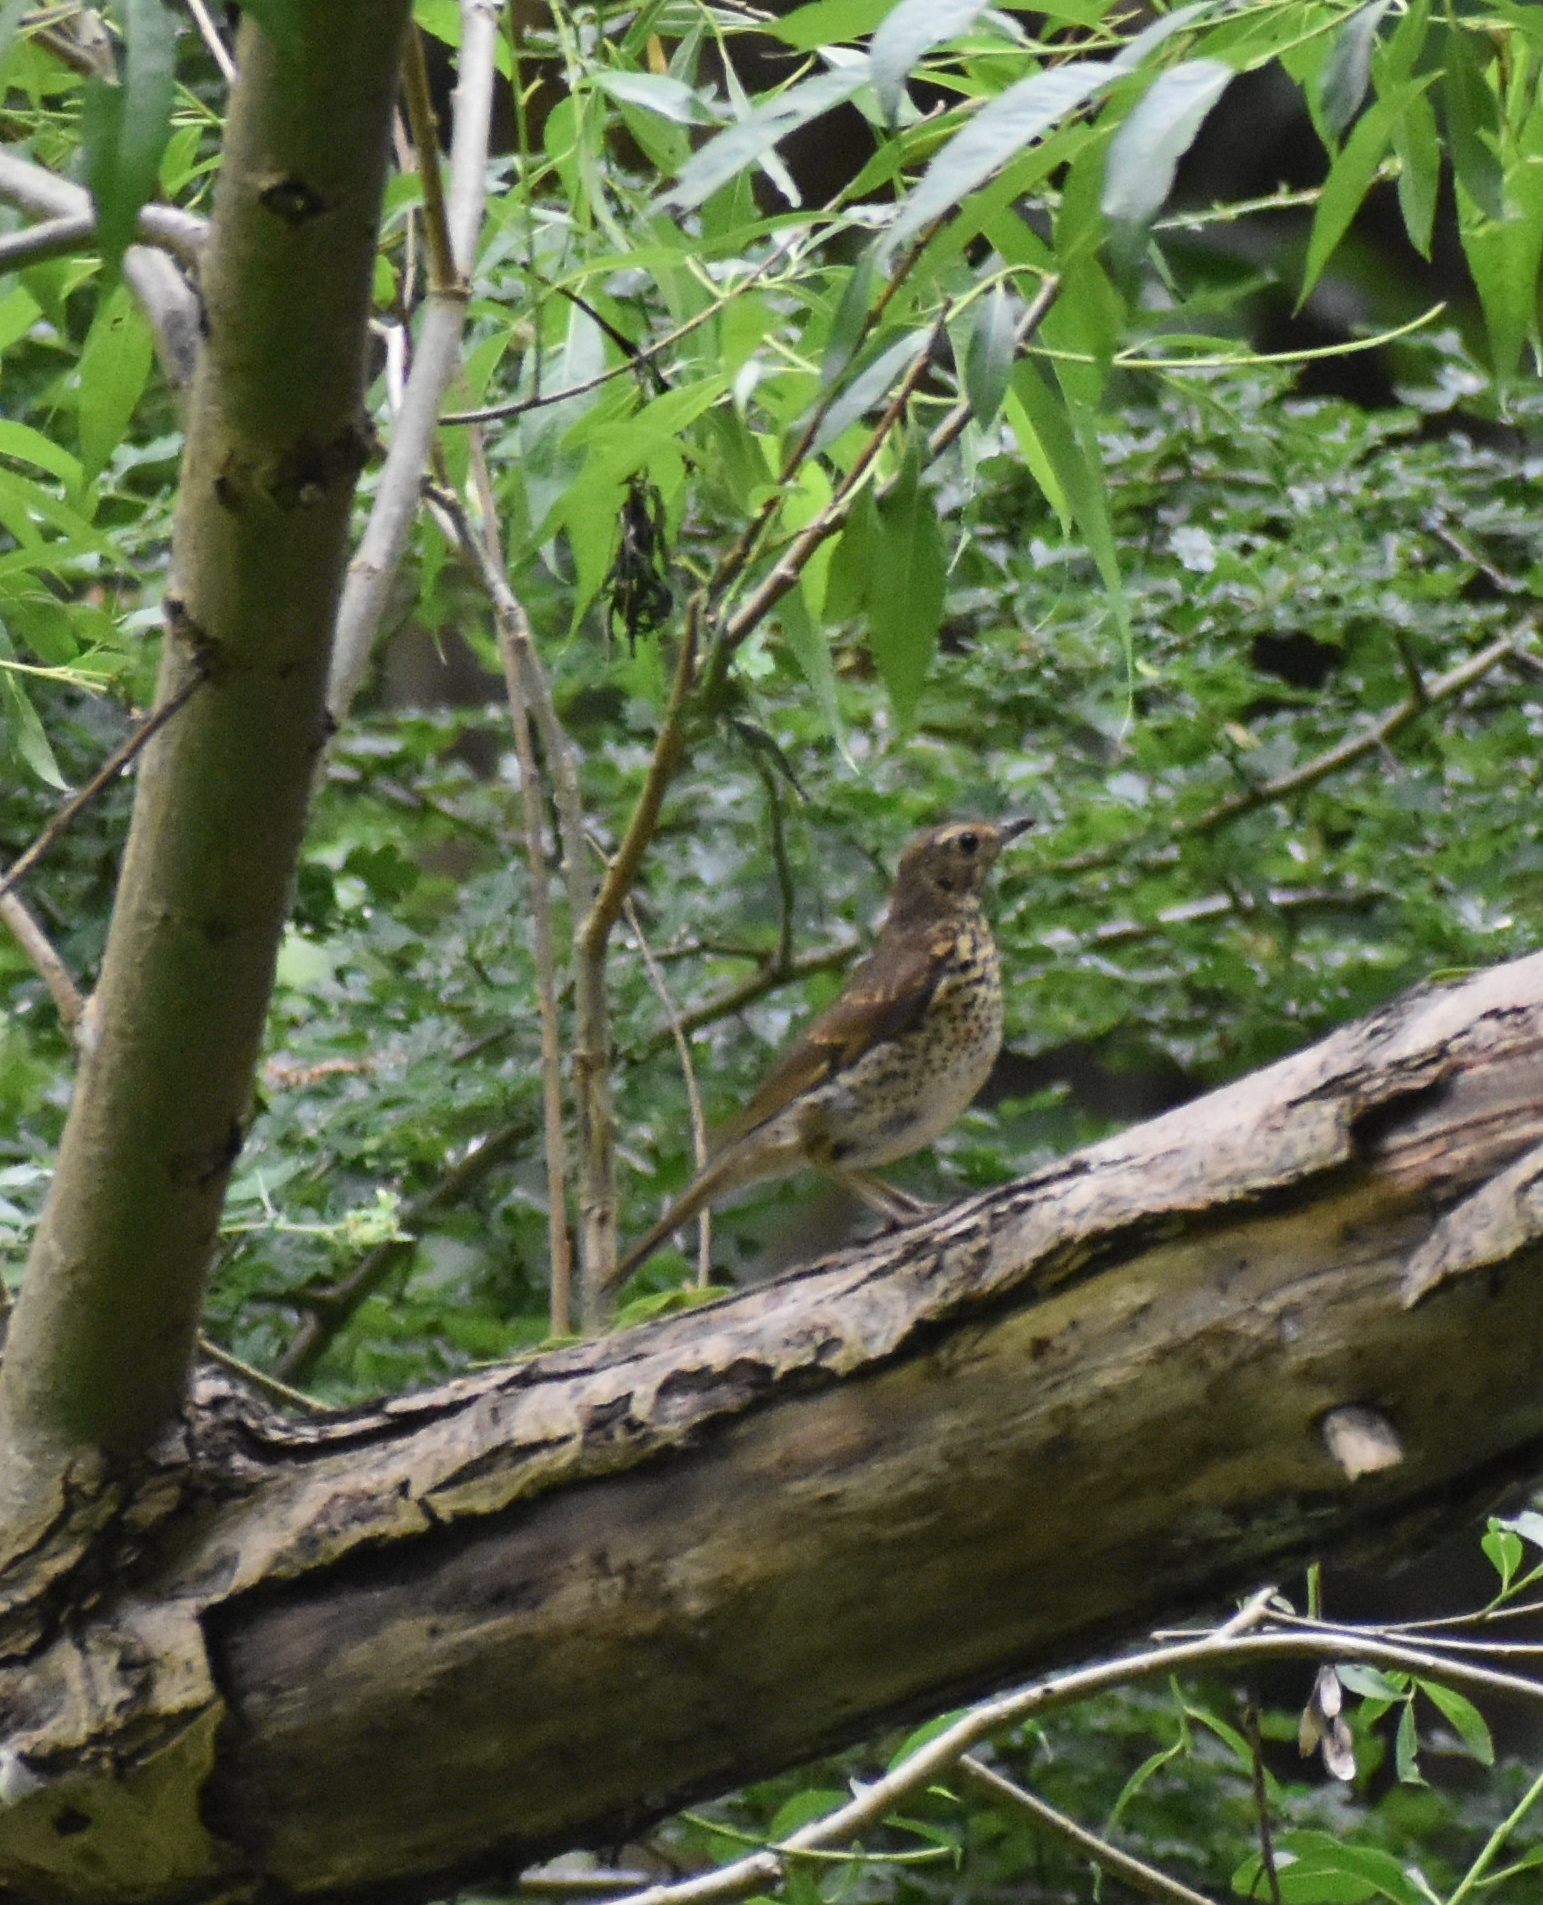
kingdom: Animalia
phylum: Chordata
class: Aves
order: Passeriformes
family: Turdidae
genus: Turdus
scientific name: Turdus philomelos
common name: Song thrush
